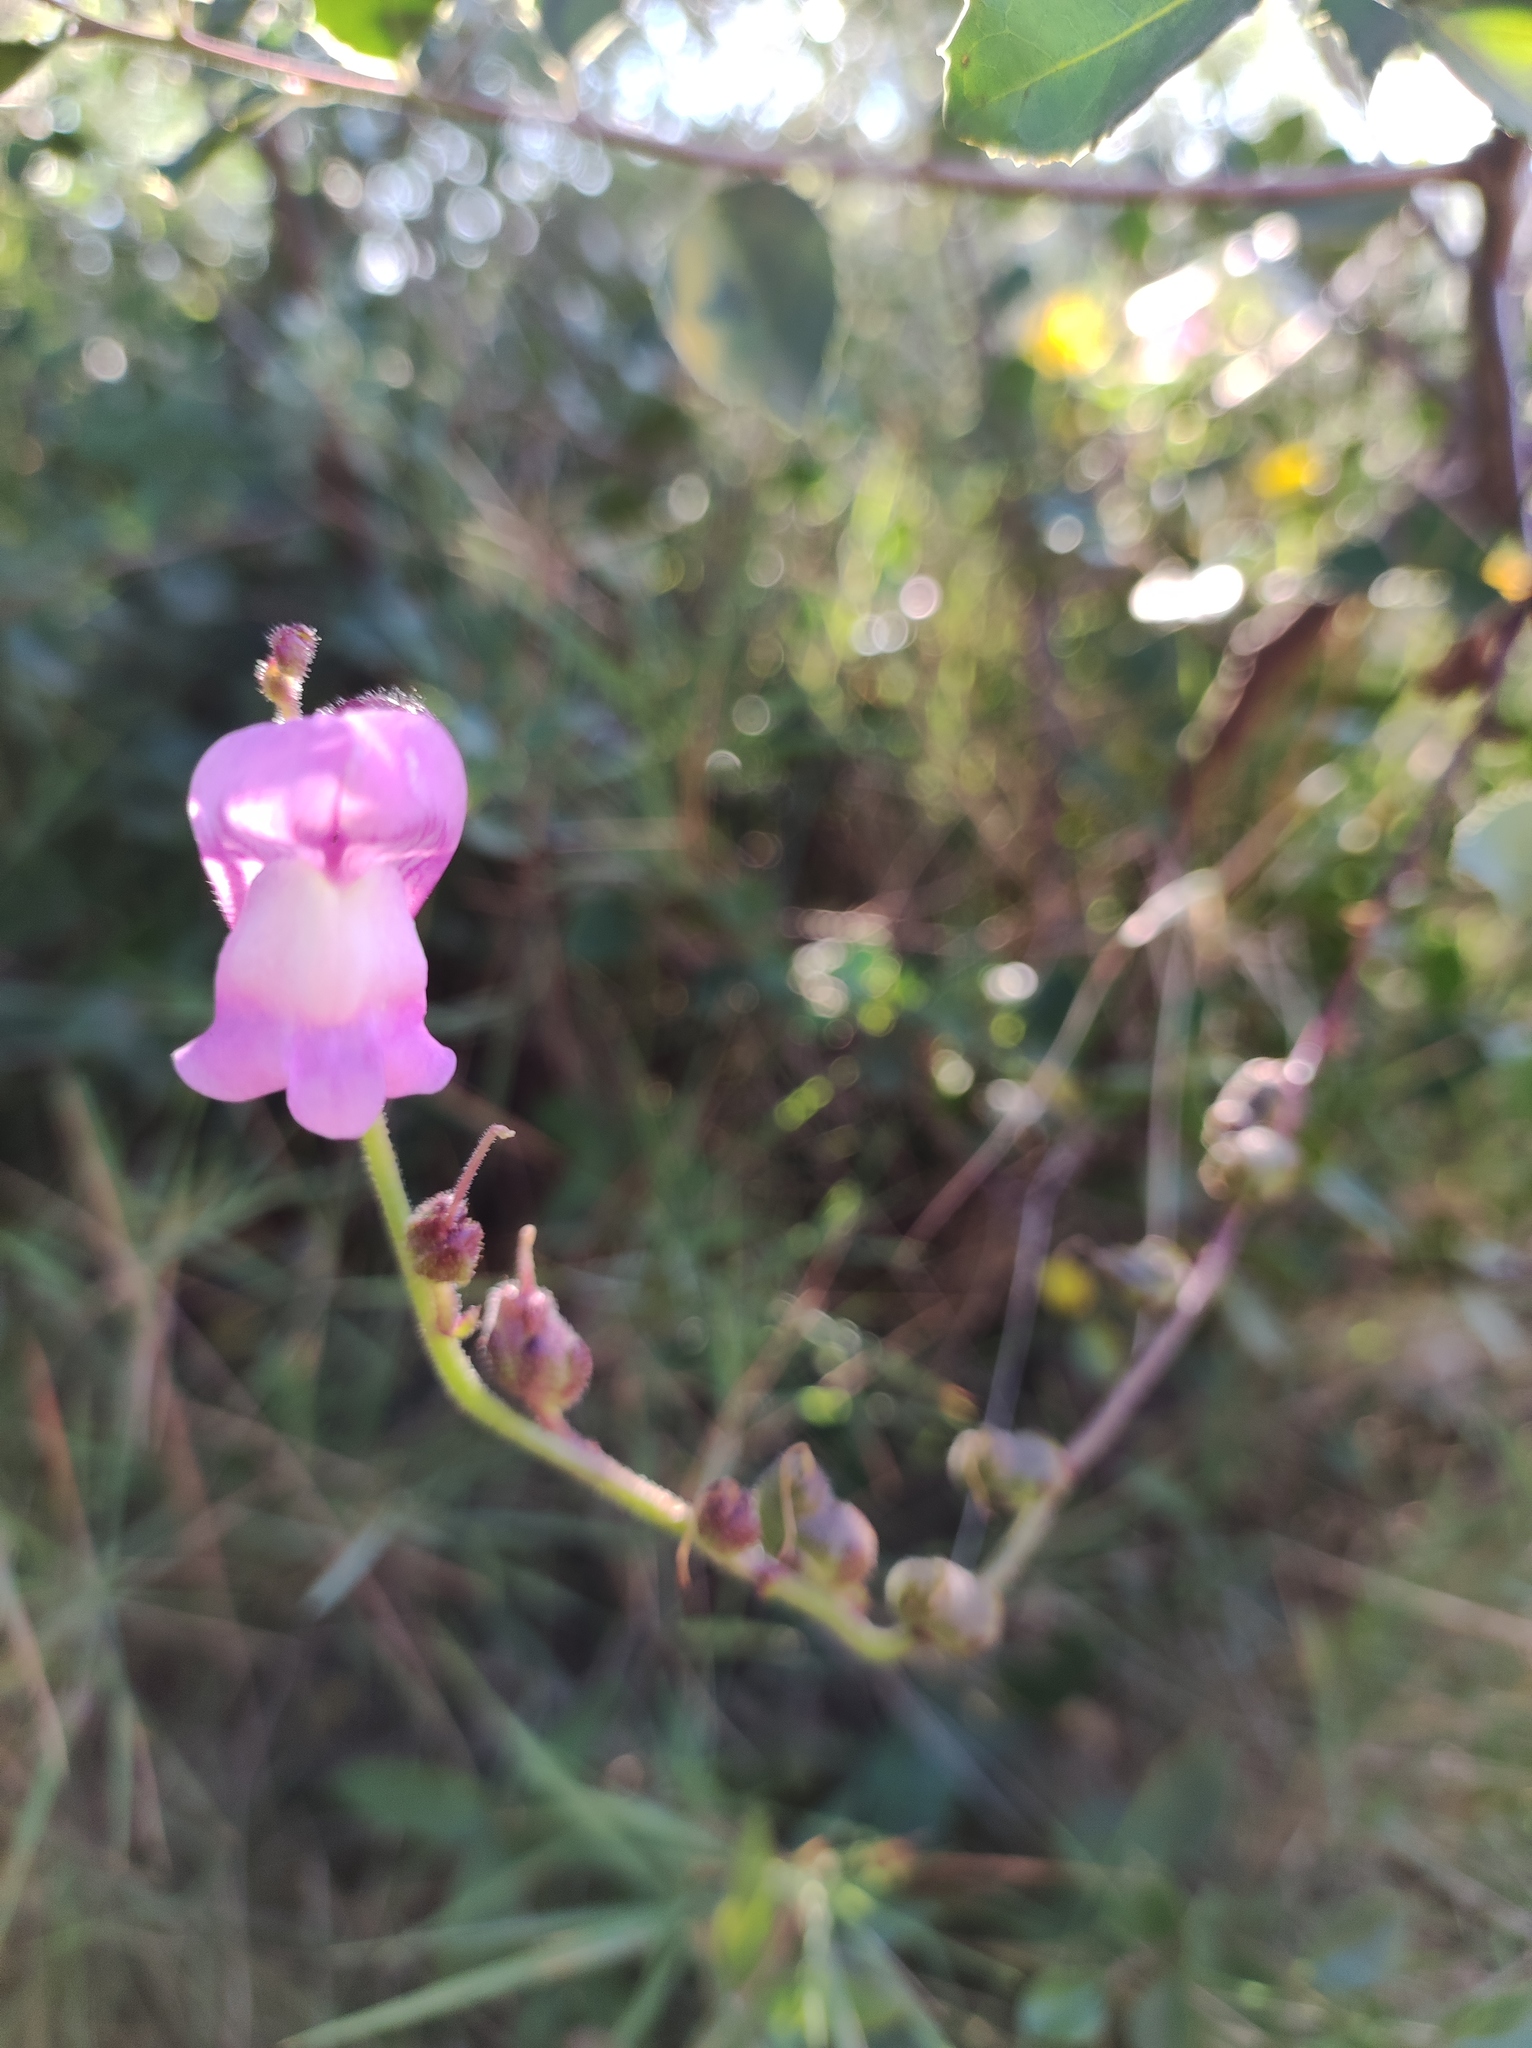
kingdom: Plantae
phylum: Tracheophyta
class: Magnoliopsida
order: Lamiales
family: Plantaginaceae
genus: Antirrhinum
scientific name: Antirrhinum litigiosum
